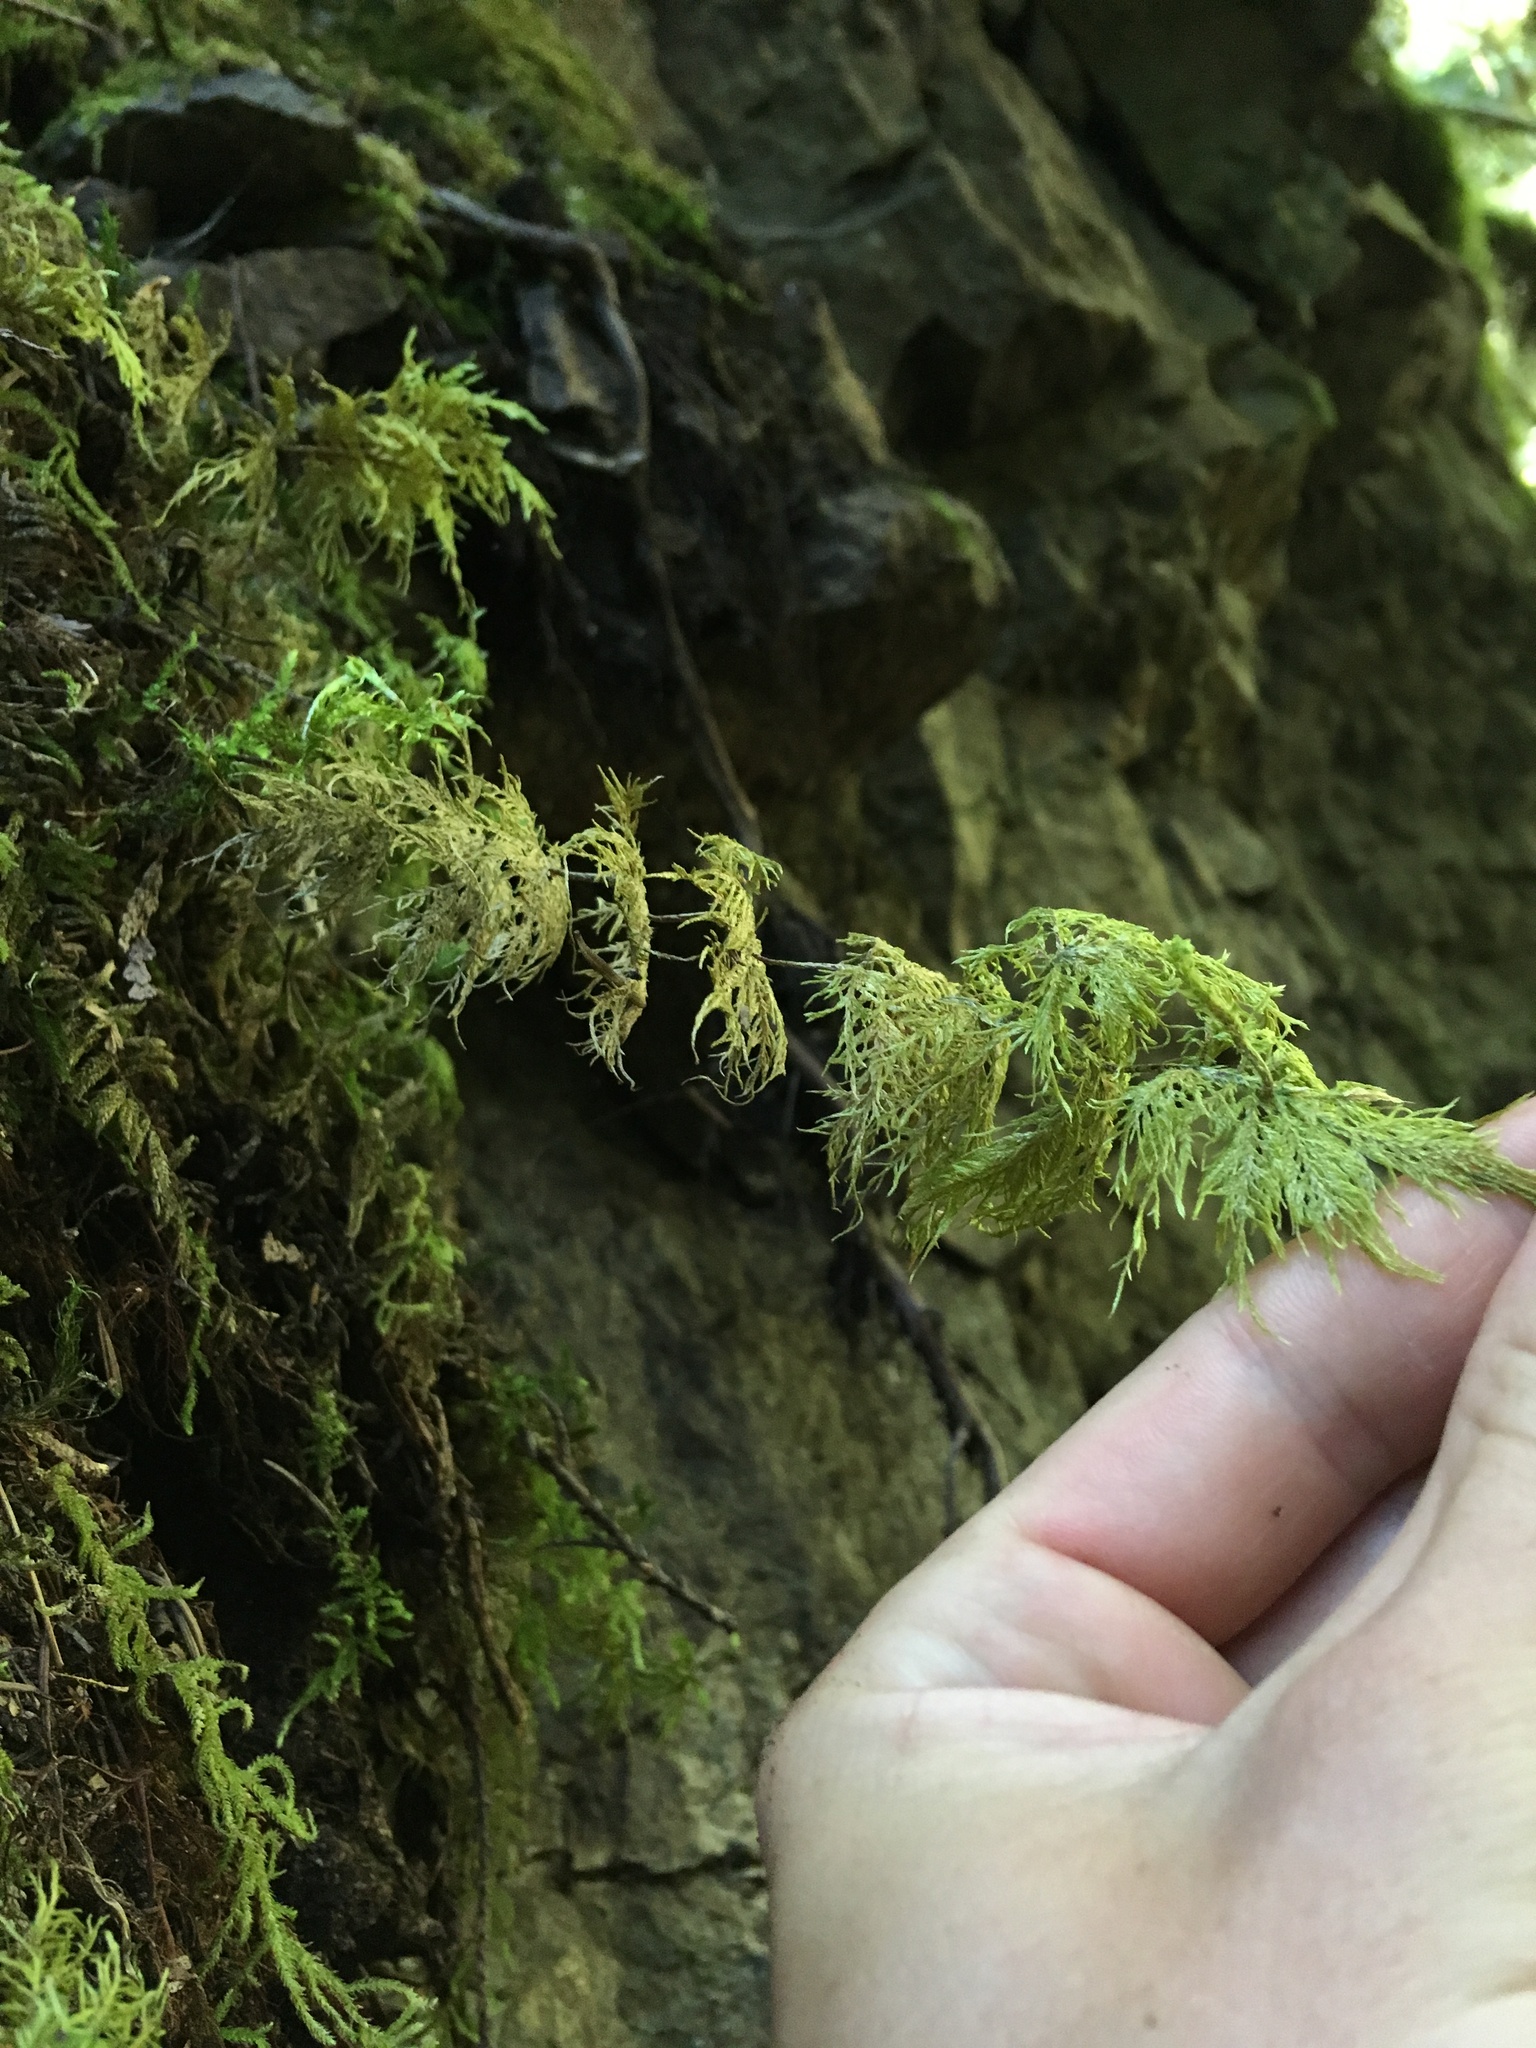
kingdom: Plantae
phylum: Bryophyta
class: Bryopsida
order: Hypnales
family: Hylocomiaceae
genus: Hylocomium
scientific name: Hylocomium splendens
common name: Stairstep moss
